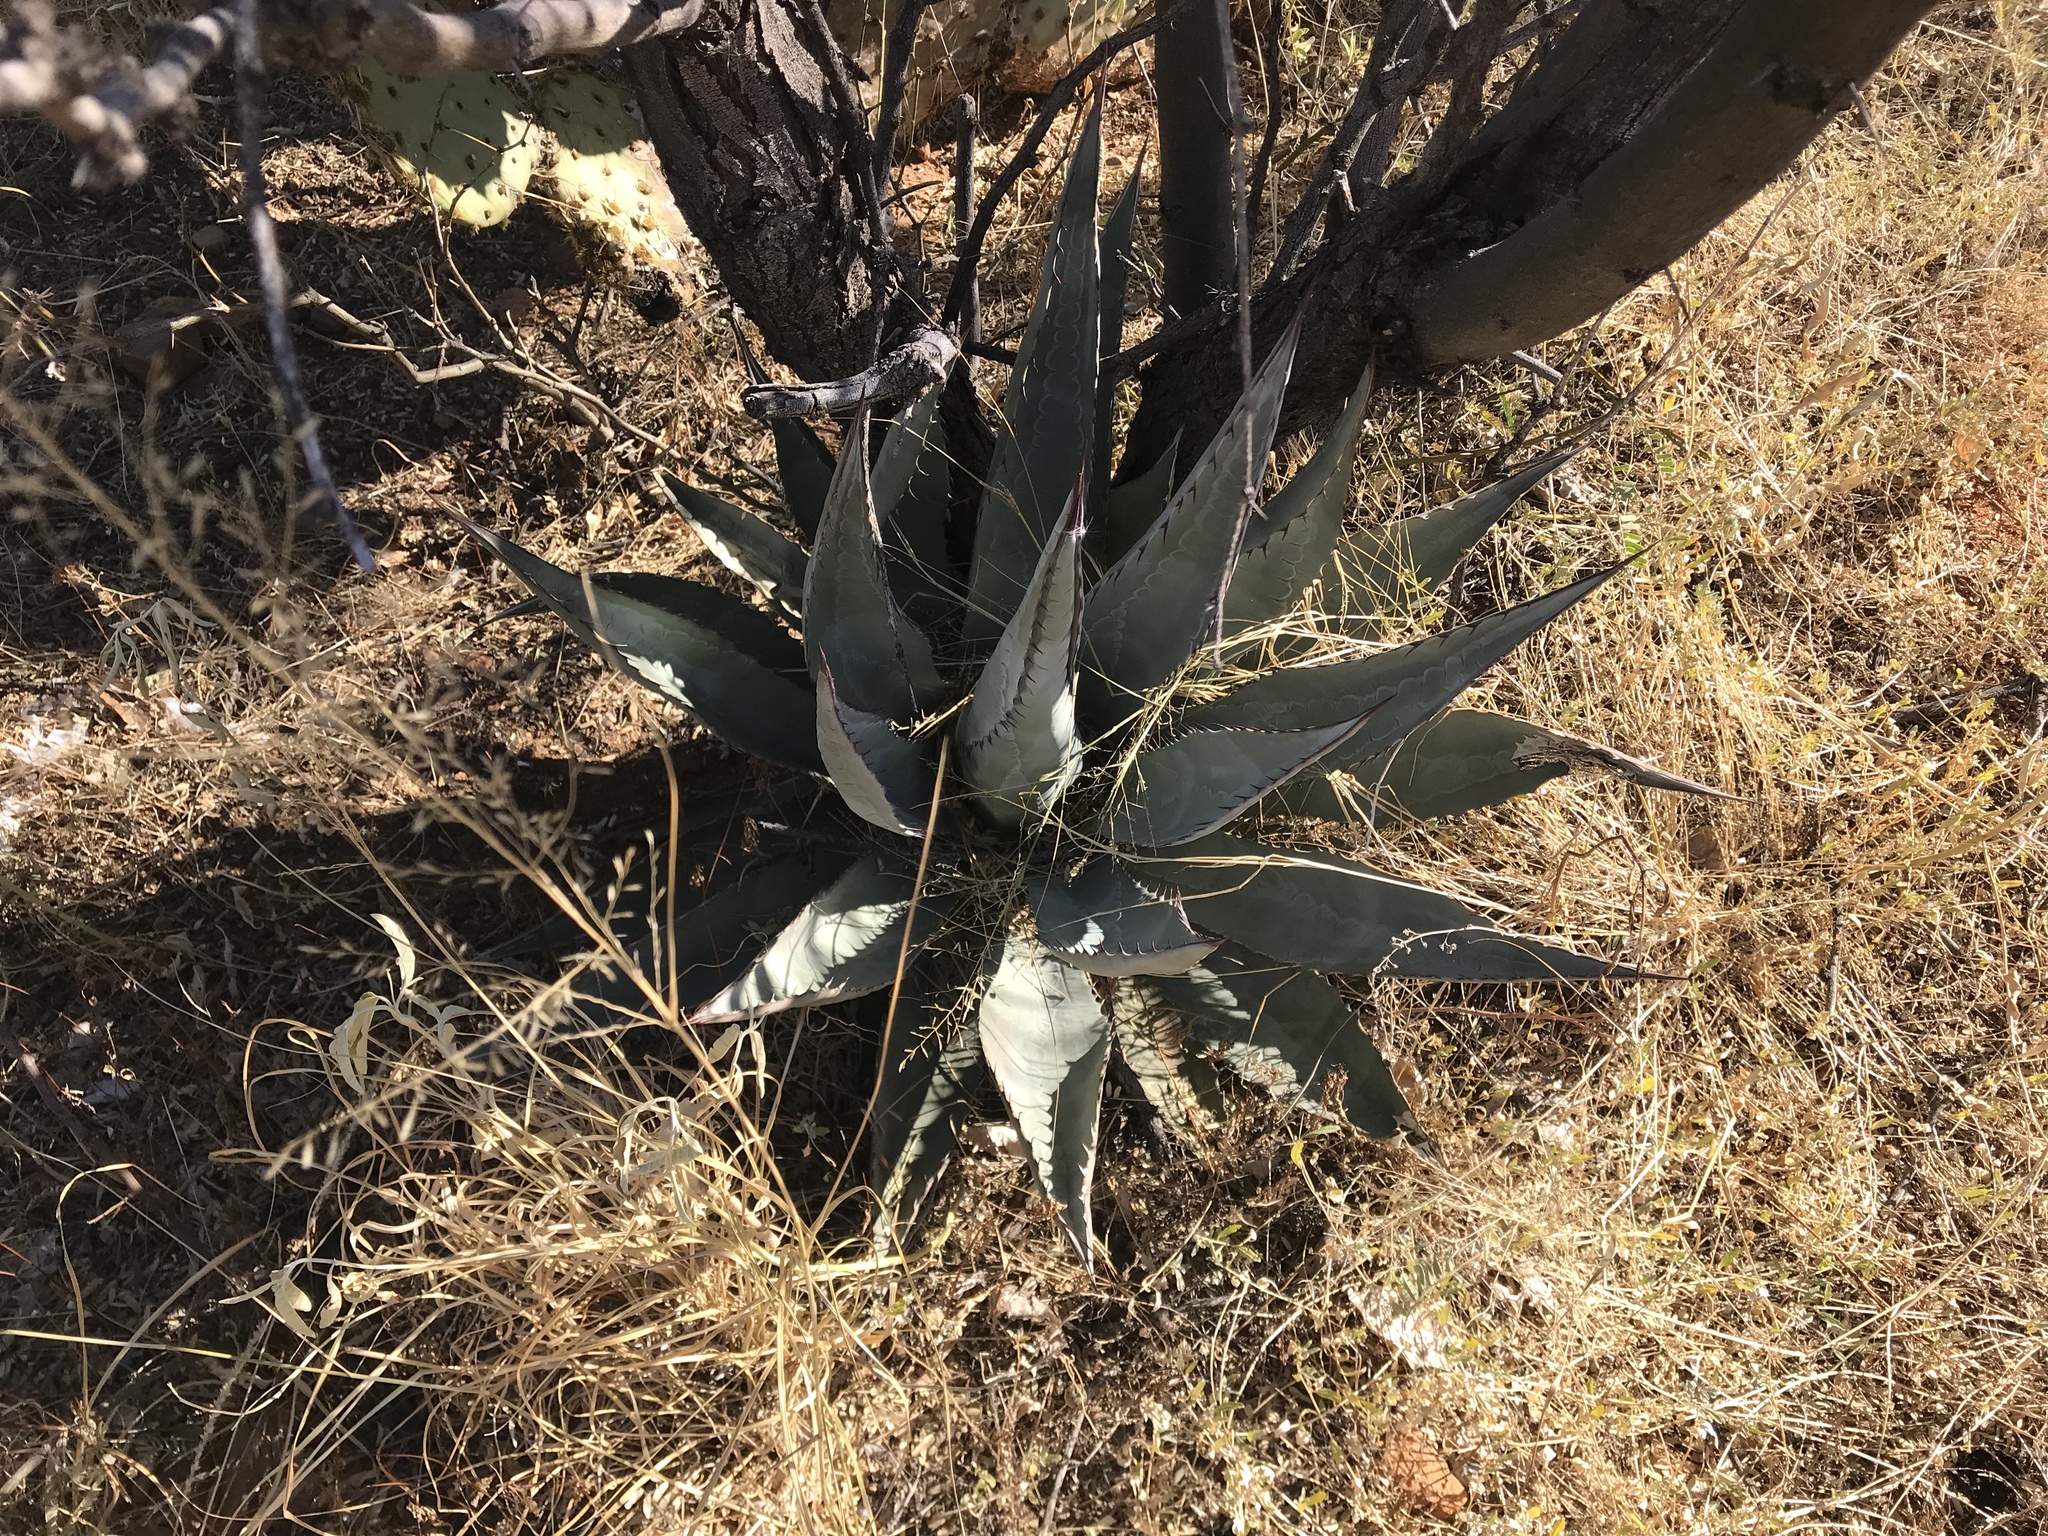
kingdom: Plantae
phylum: Tracheophyta
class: Liliopsida
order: Asparagales
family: Asparagaceae
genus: Agave
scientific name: Agave palmeri
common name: Palmer agave
